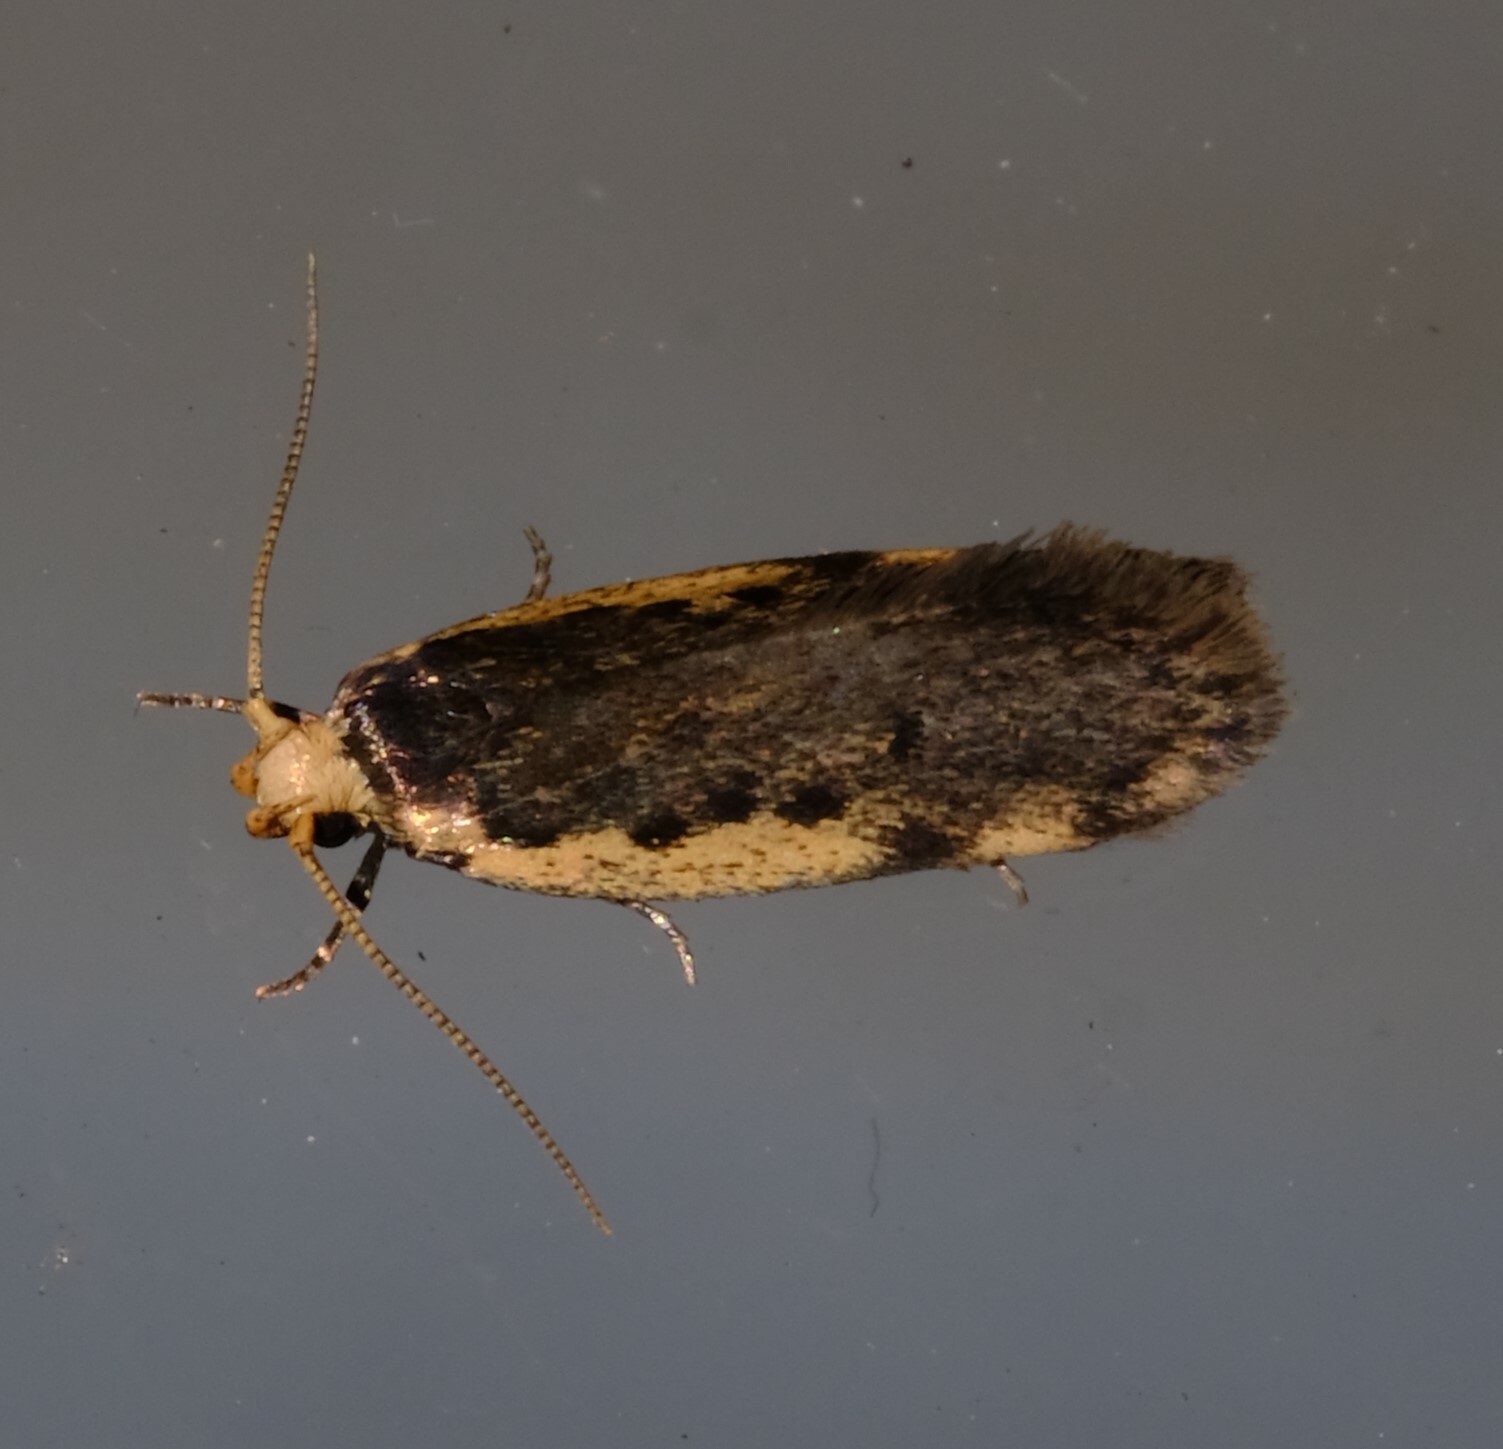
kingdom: Animalia
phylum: Arthropoda
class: Insecta
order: Lepidoptera
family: Oecophoridae
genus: Hoplostega
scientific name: Hoplostega ochroma
